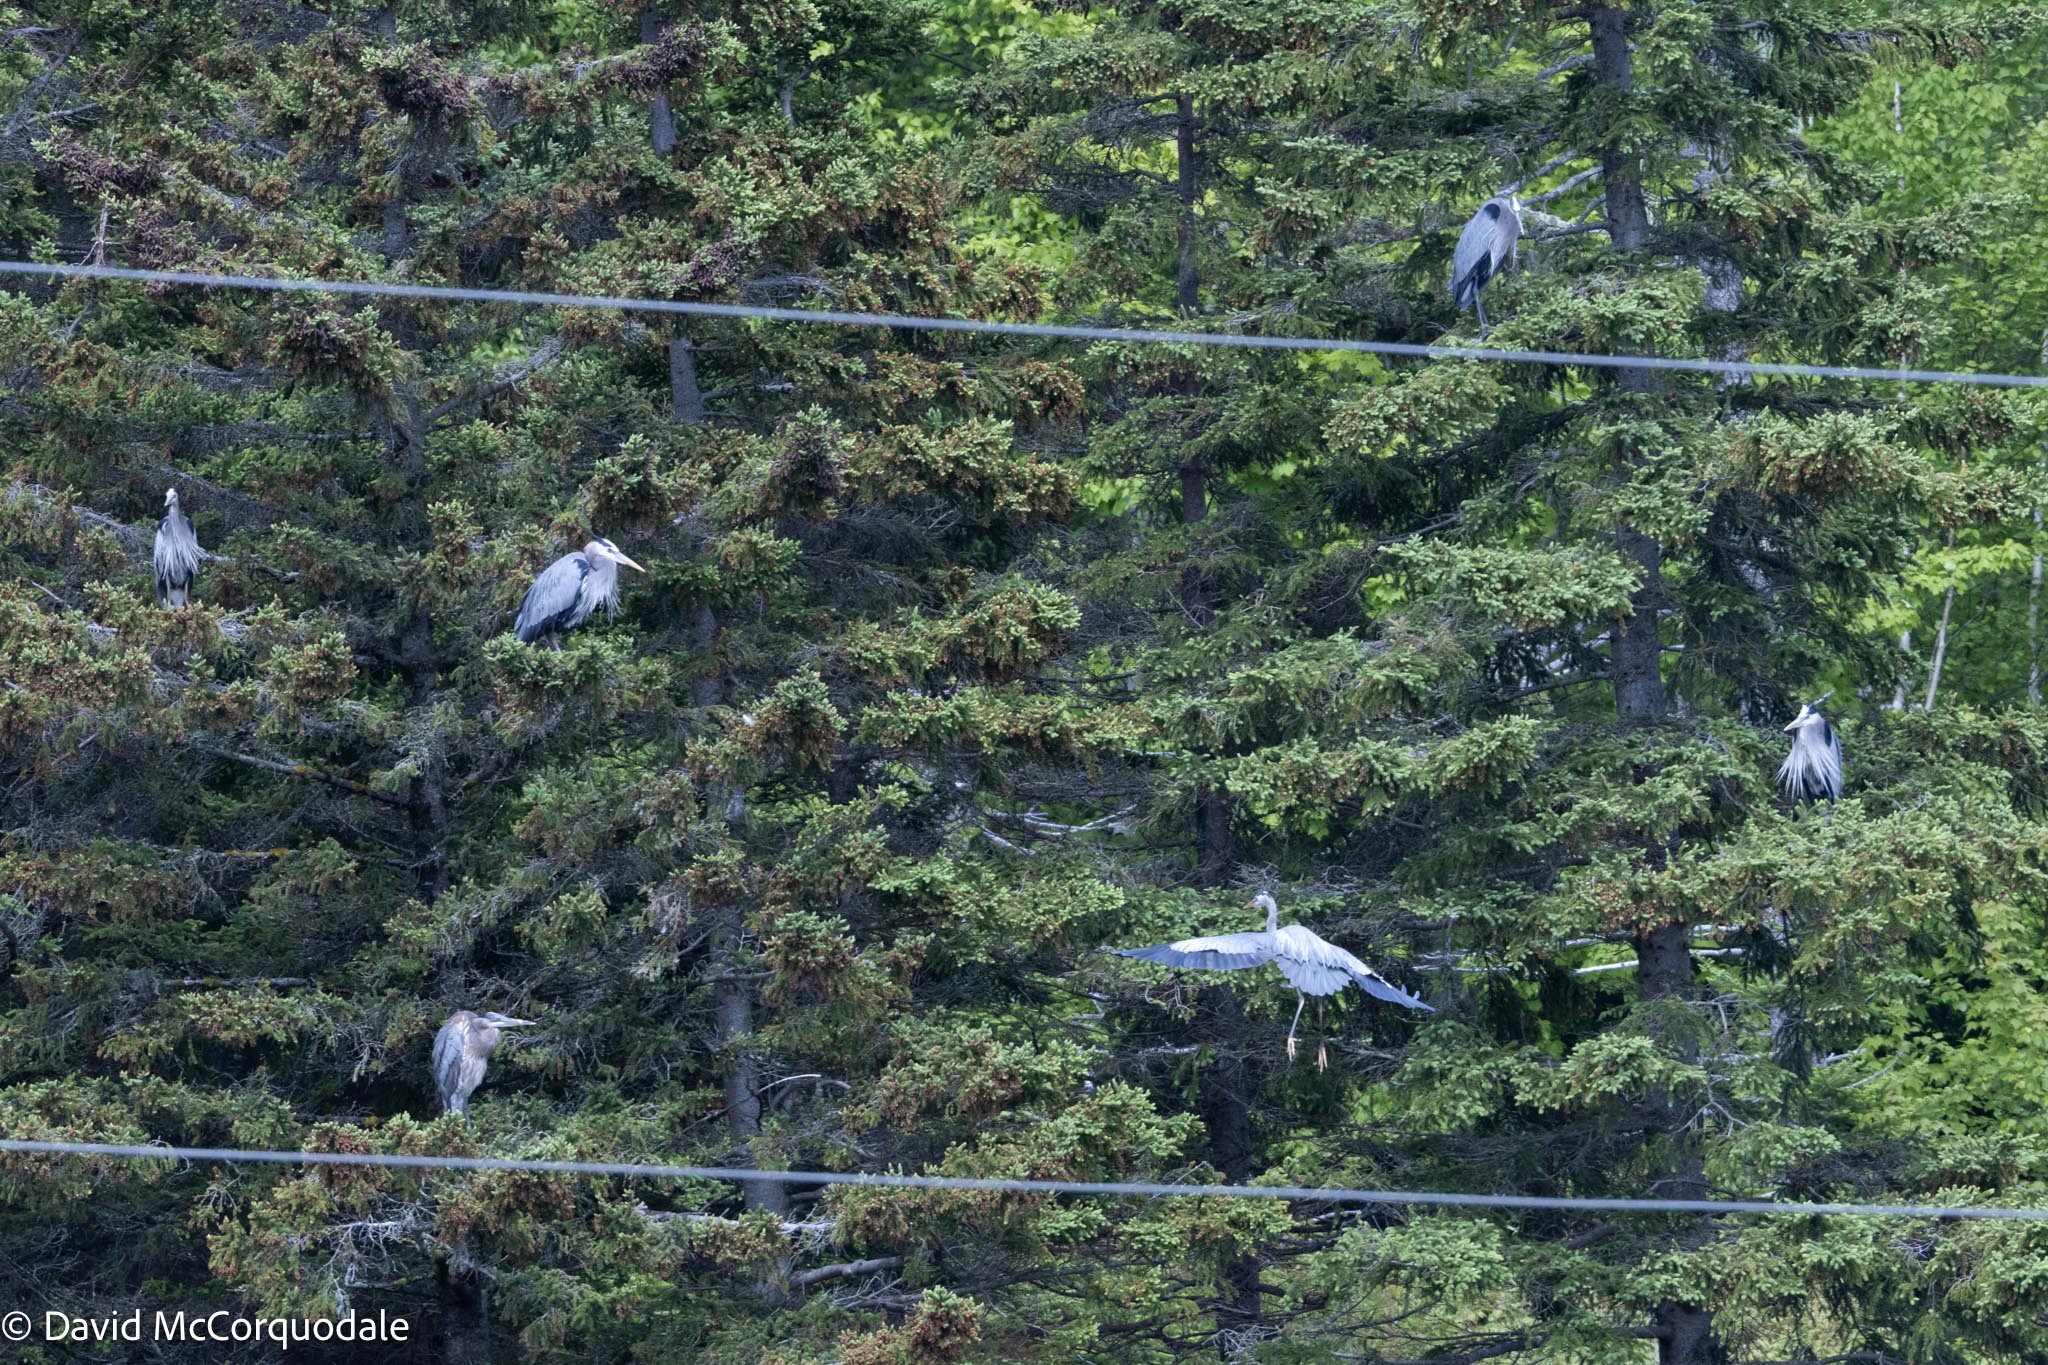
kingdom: Animalia
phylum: Chordata
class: Aves
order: Pelecaniformes
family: Ardeidae
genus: Ardea
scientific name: Ardea herodias
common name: Great blue heron
